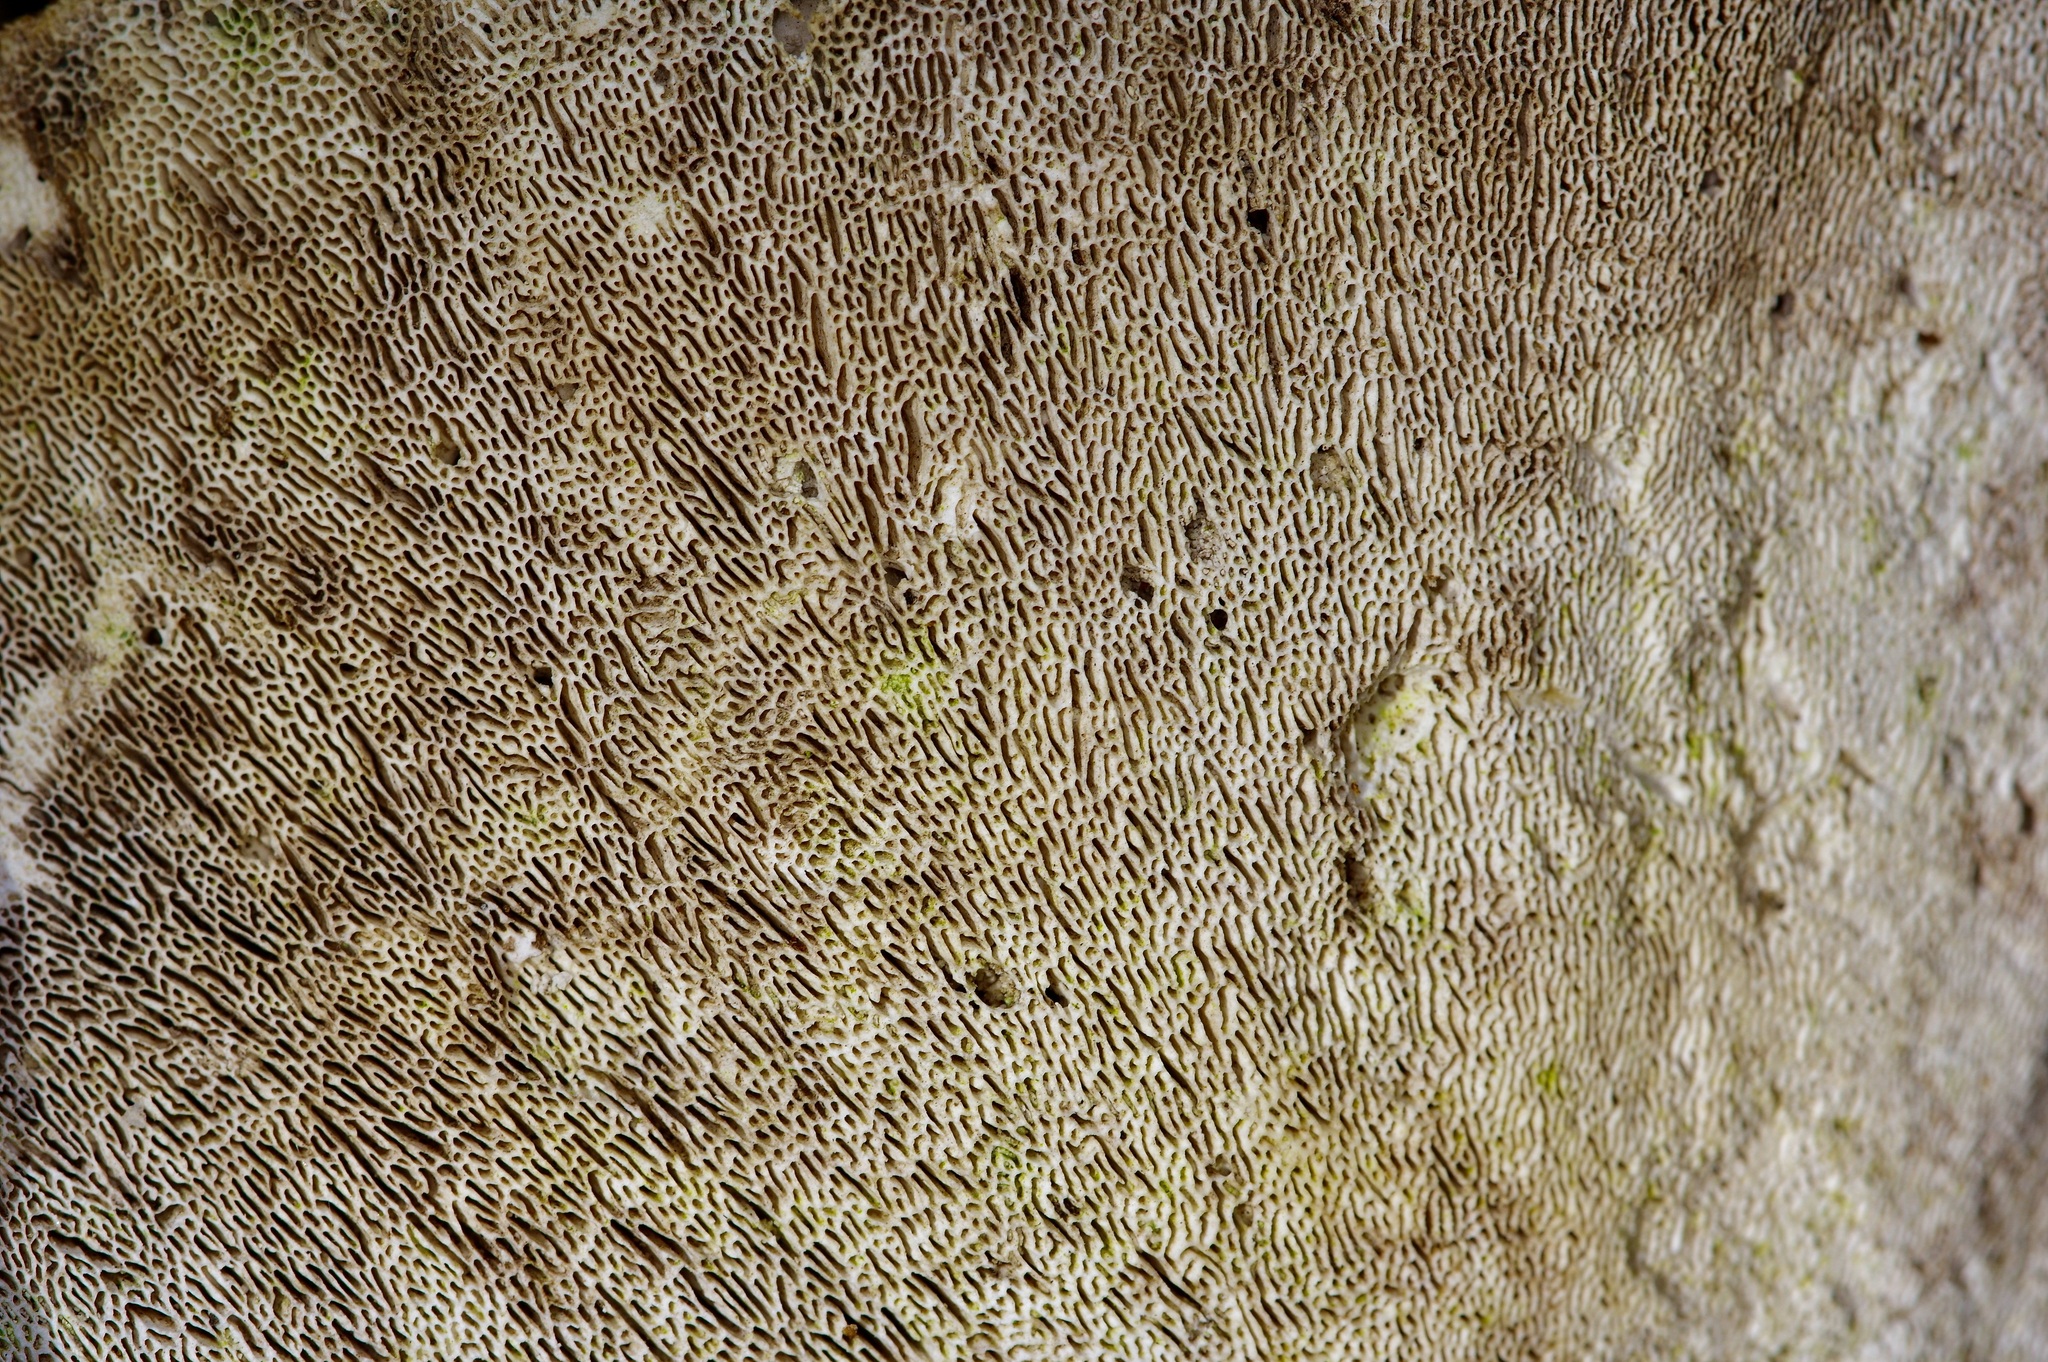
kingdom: Fungi
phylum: Basidiomycota
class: Agaricomycetes
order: Polyporales
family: Polyporaceae
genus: Trametes
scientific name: Trametes
